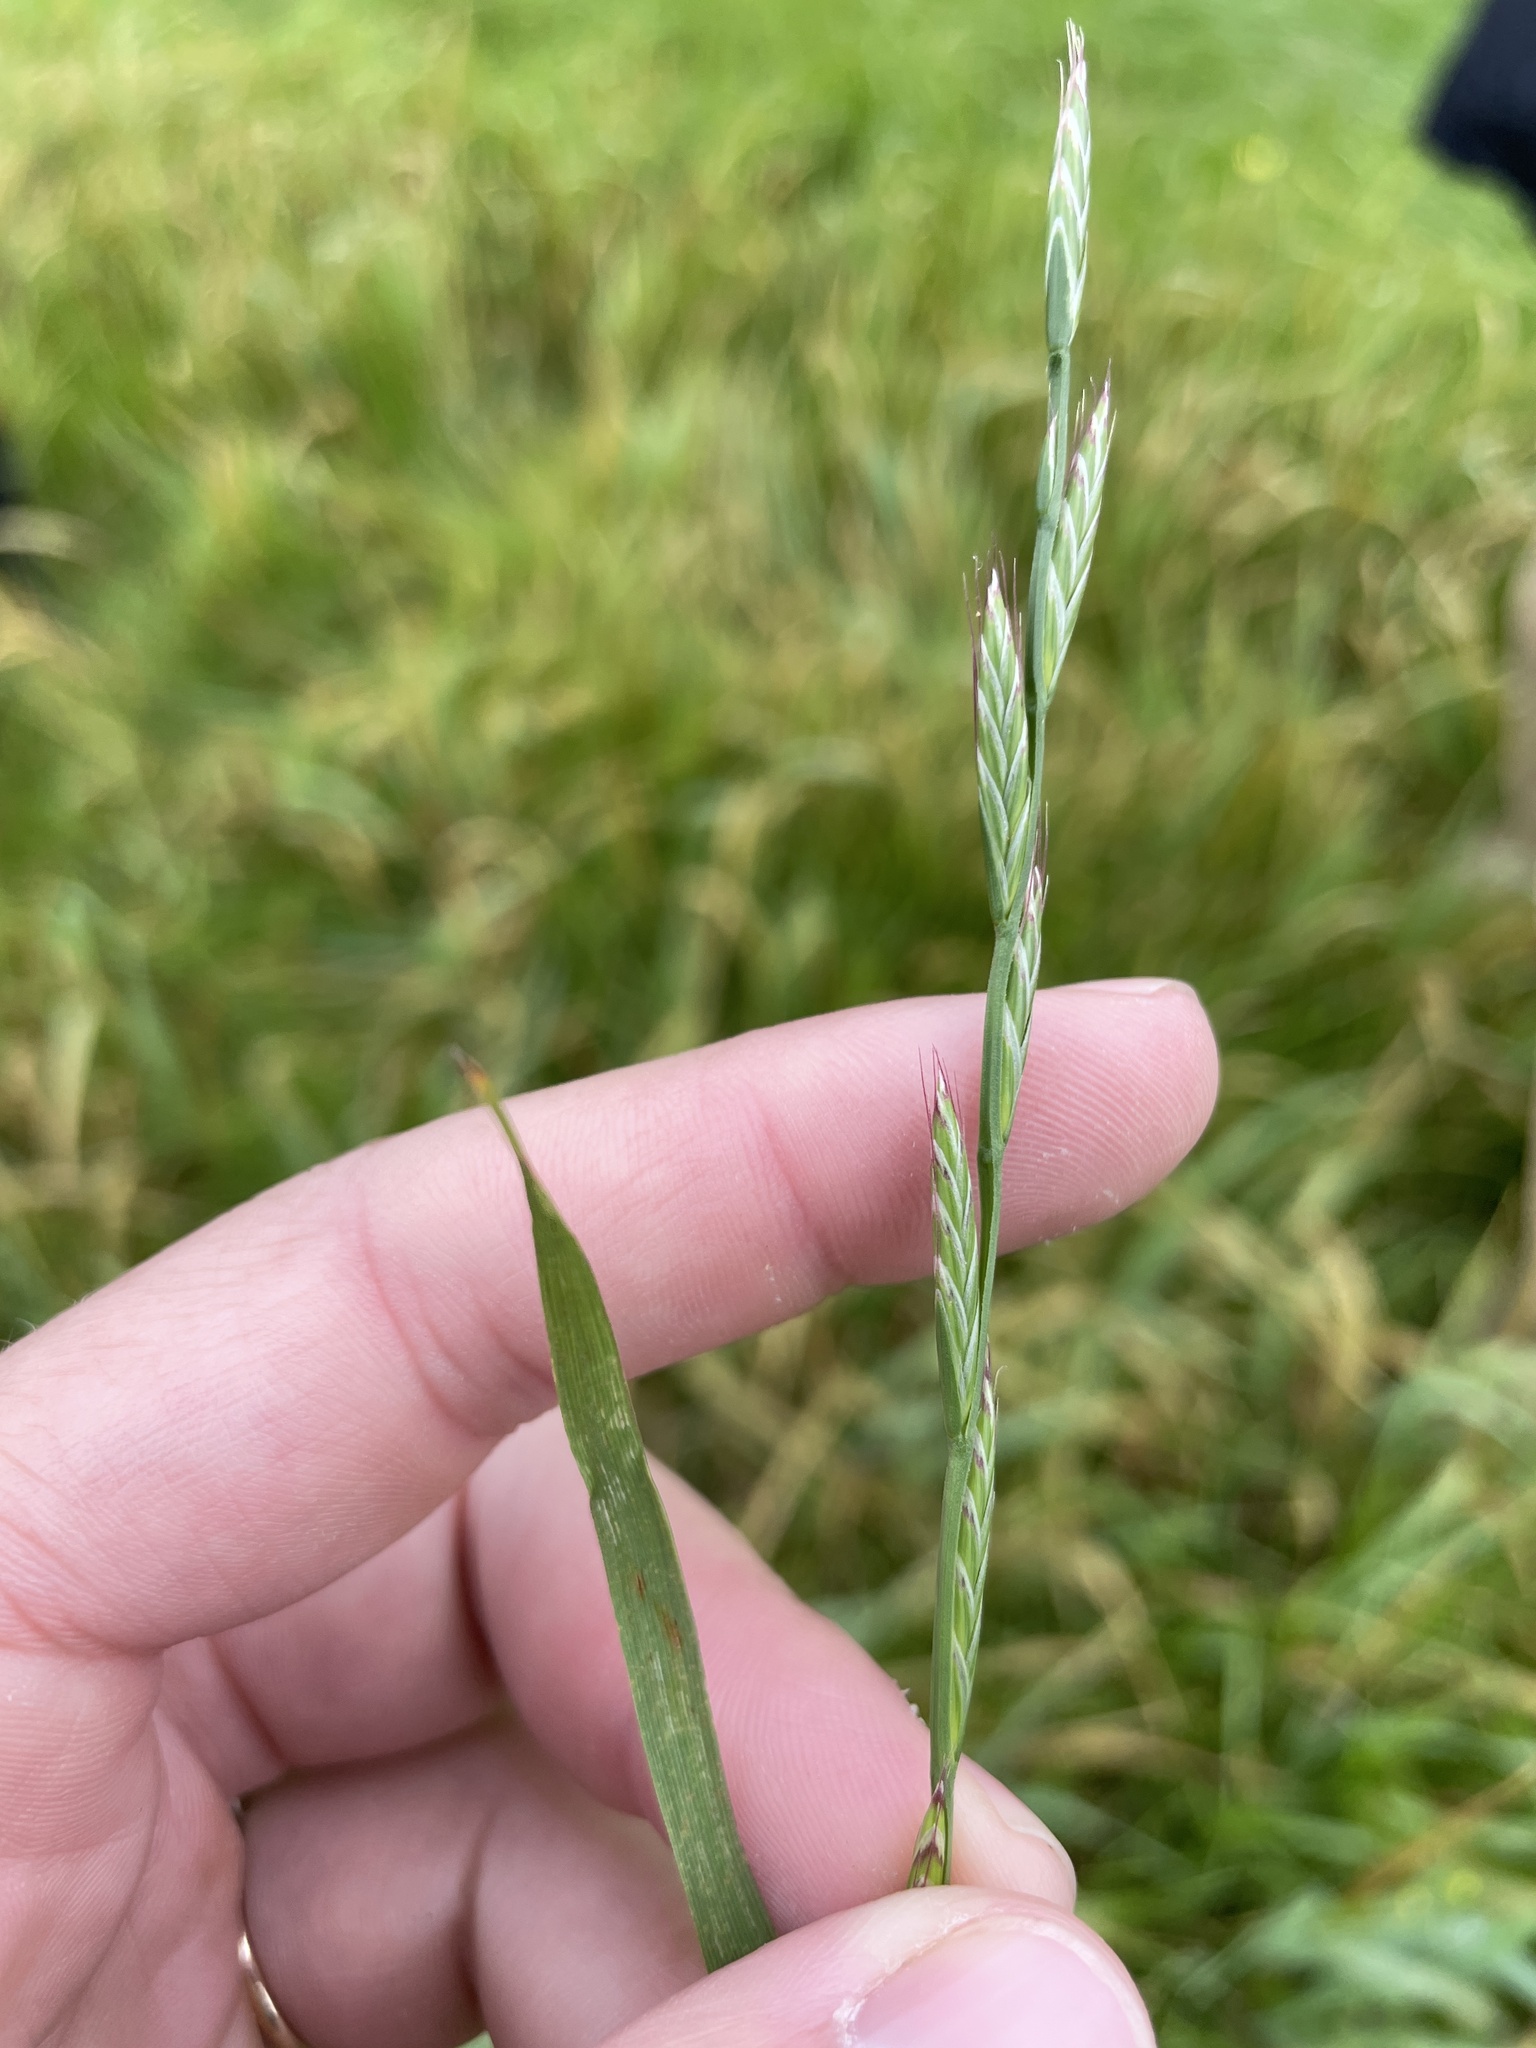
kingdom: Plantae
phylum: Tracheophyta
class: Liliopsida
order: Poales
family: Poaceae
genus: Lolium
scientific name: Lolium perenne
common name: Perennial ryegrass
